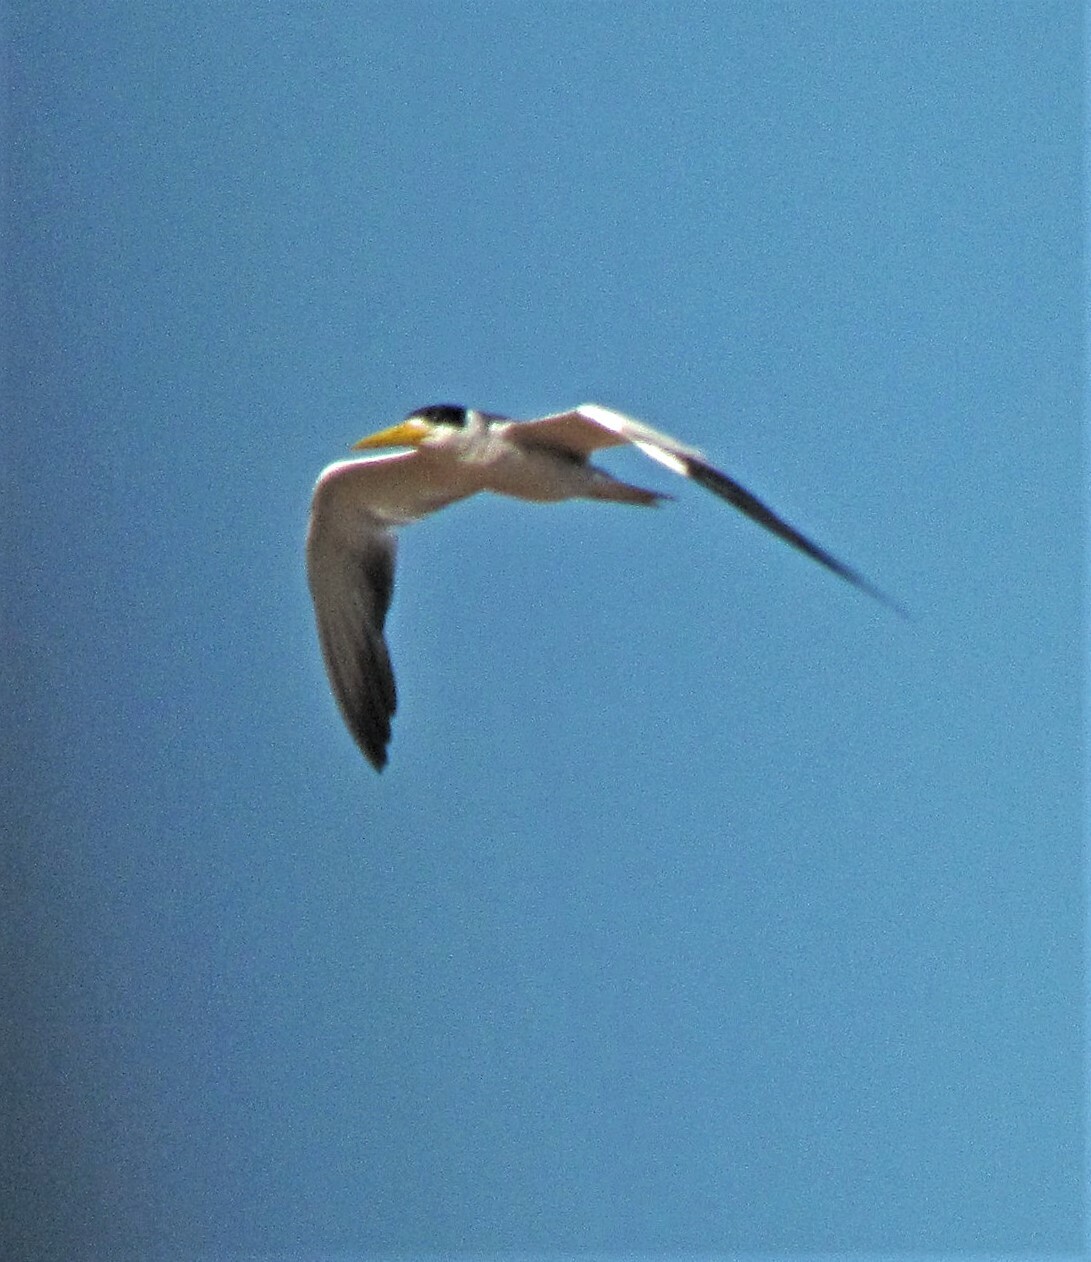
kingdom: Animalia
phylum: Chordata
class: Aves
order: Charadriiformes
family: Laridae
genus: Phaetusa
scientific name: Phaetusa simplex
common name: Large-billed tern
